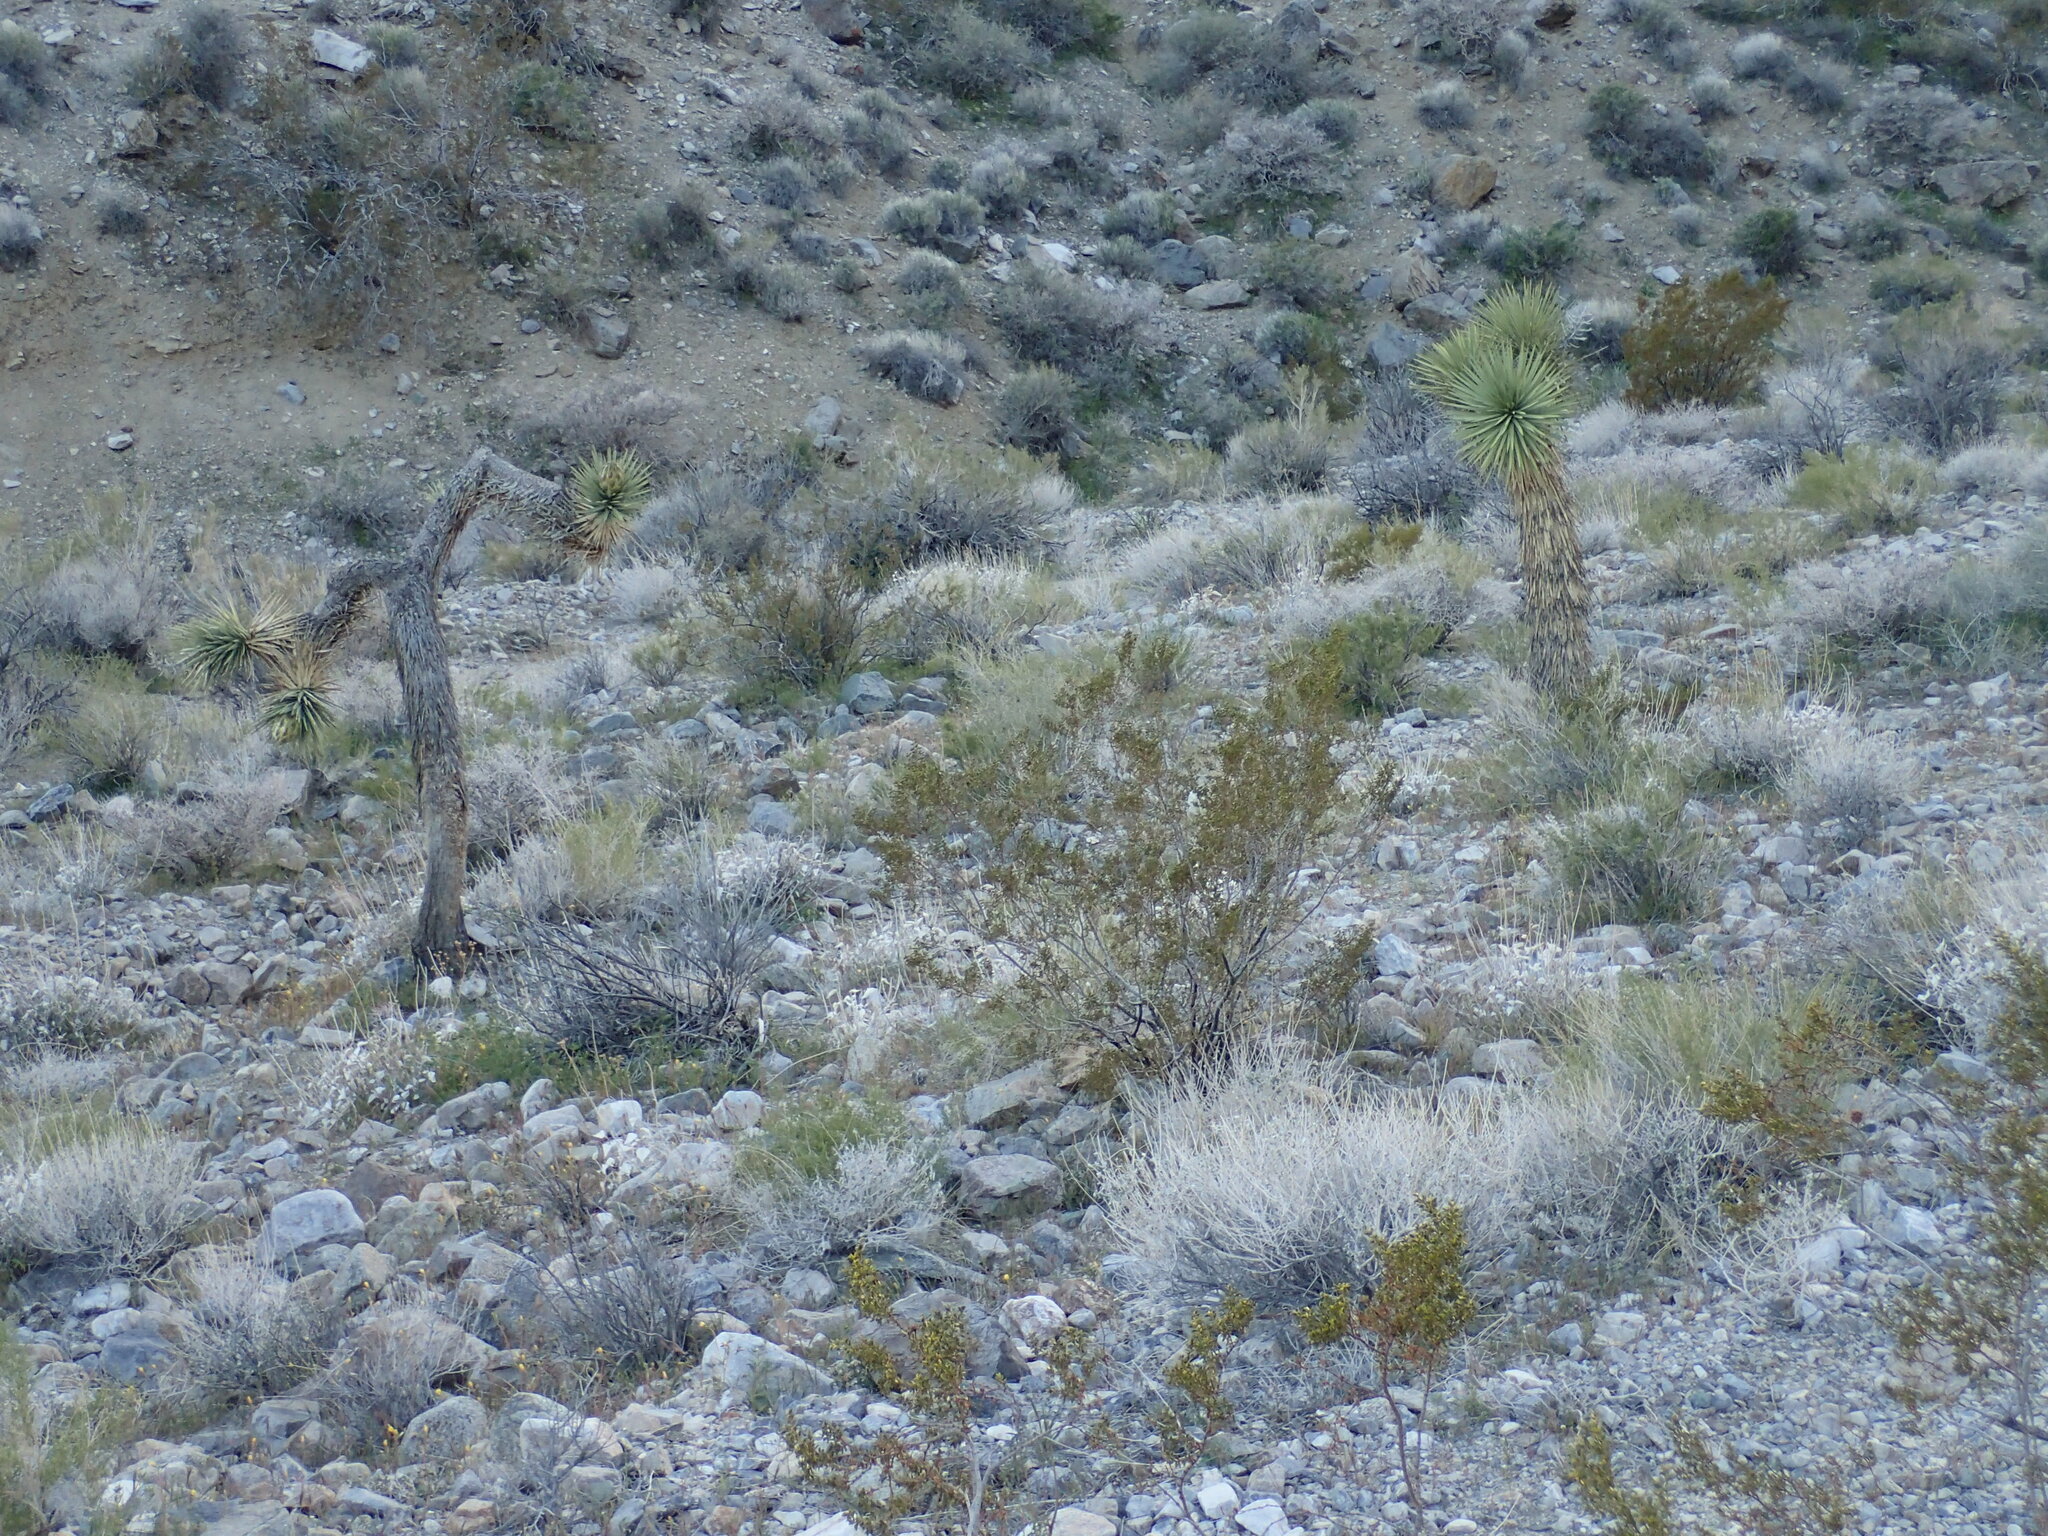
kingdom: Plantae
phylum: Tracheophyta
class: Liliopsida
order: Asparagales
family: Asparagaceae
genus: Yucca
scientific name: Yucca brevifolia
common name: Joshua tree
